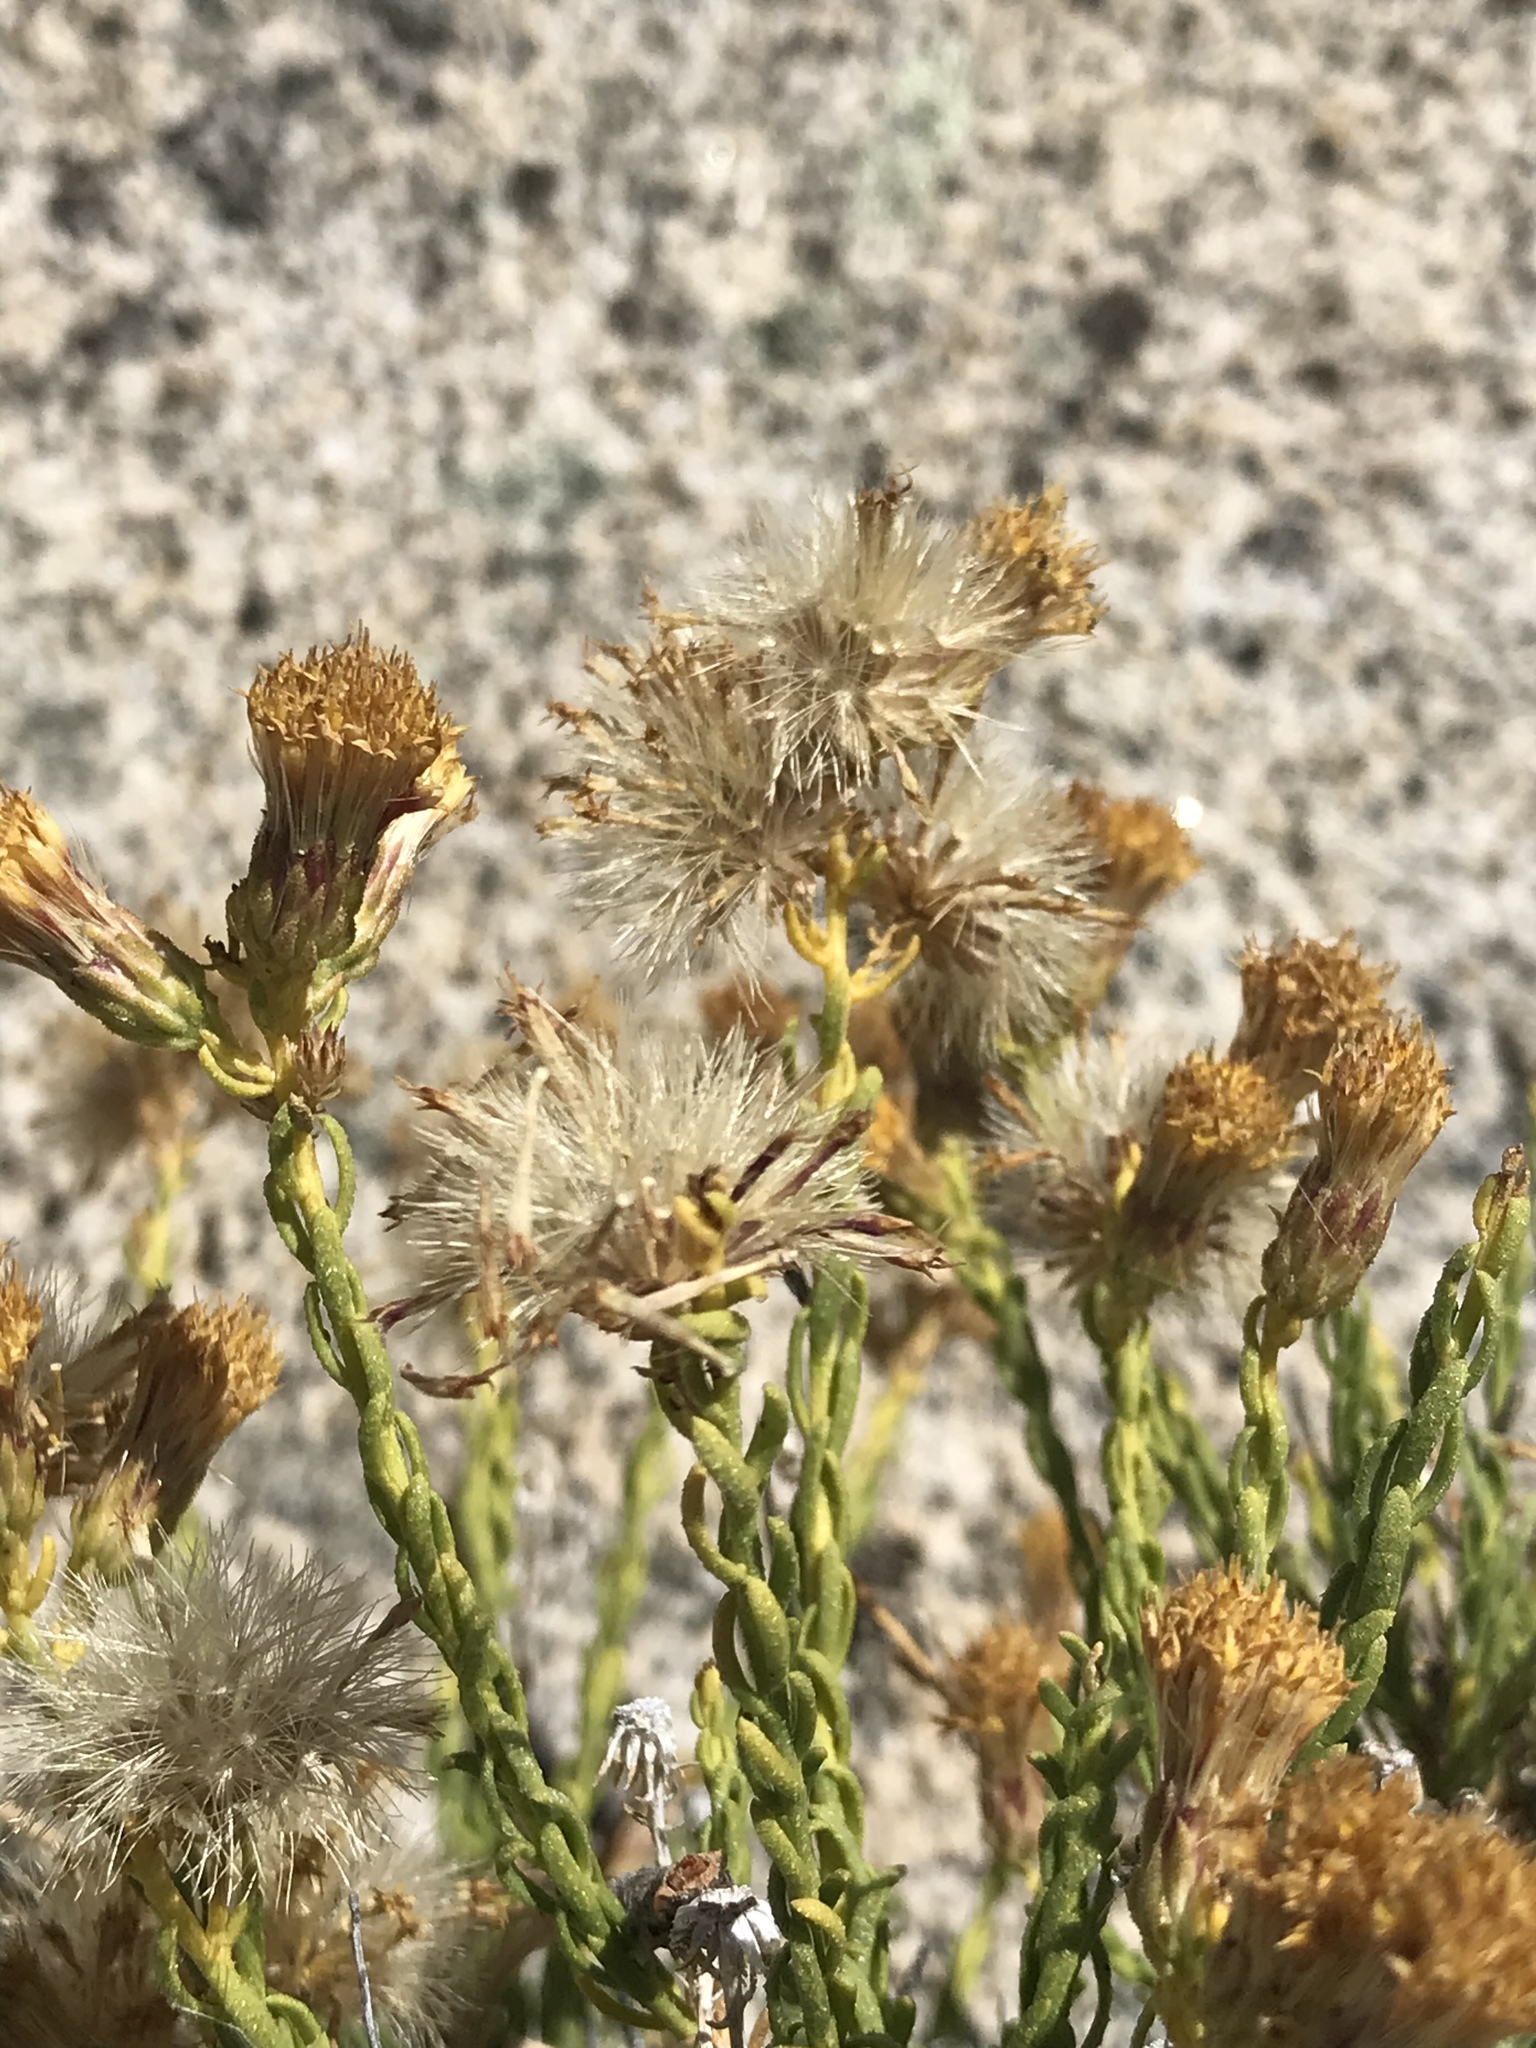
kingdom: Plantae
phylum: Tracheophyta
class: Magnoliopsida
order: Asterales
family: Asteraceae
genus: Ericameria
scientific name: Ericameria martirensis
